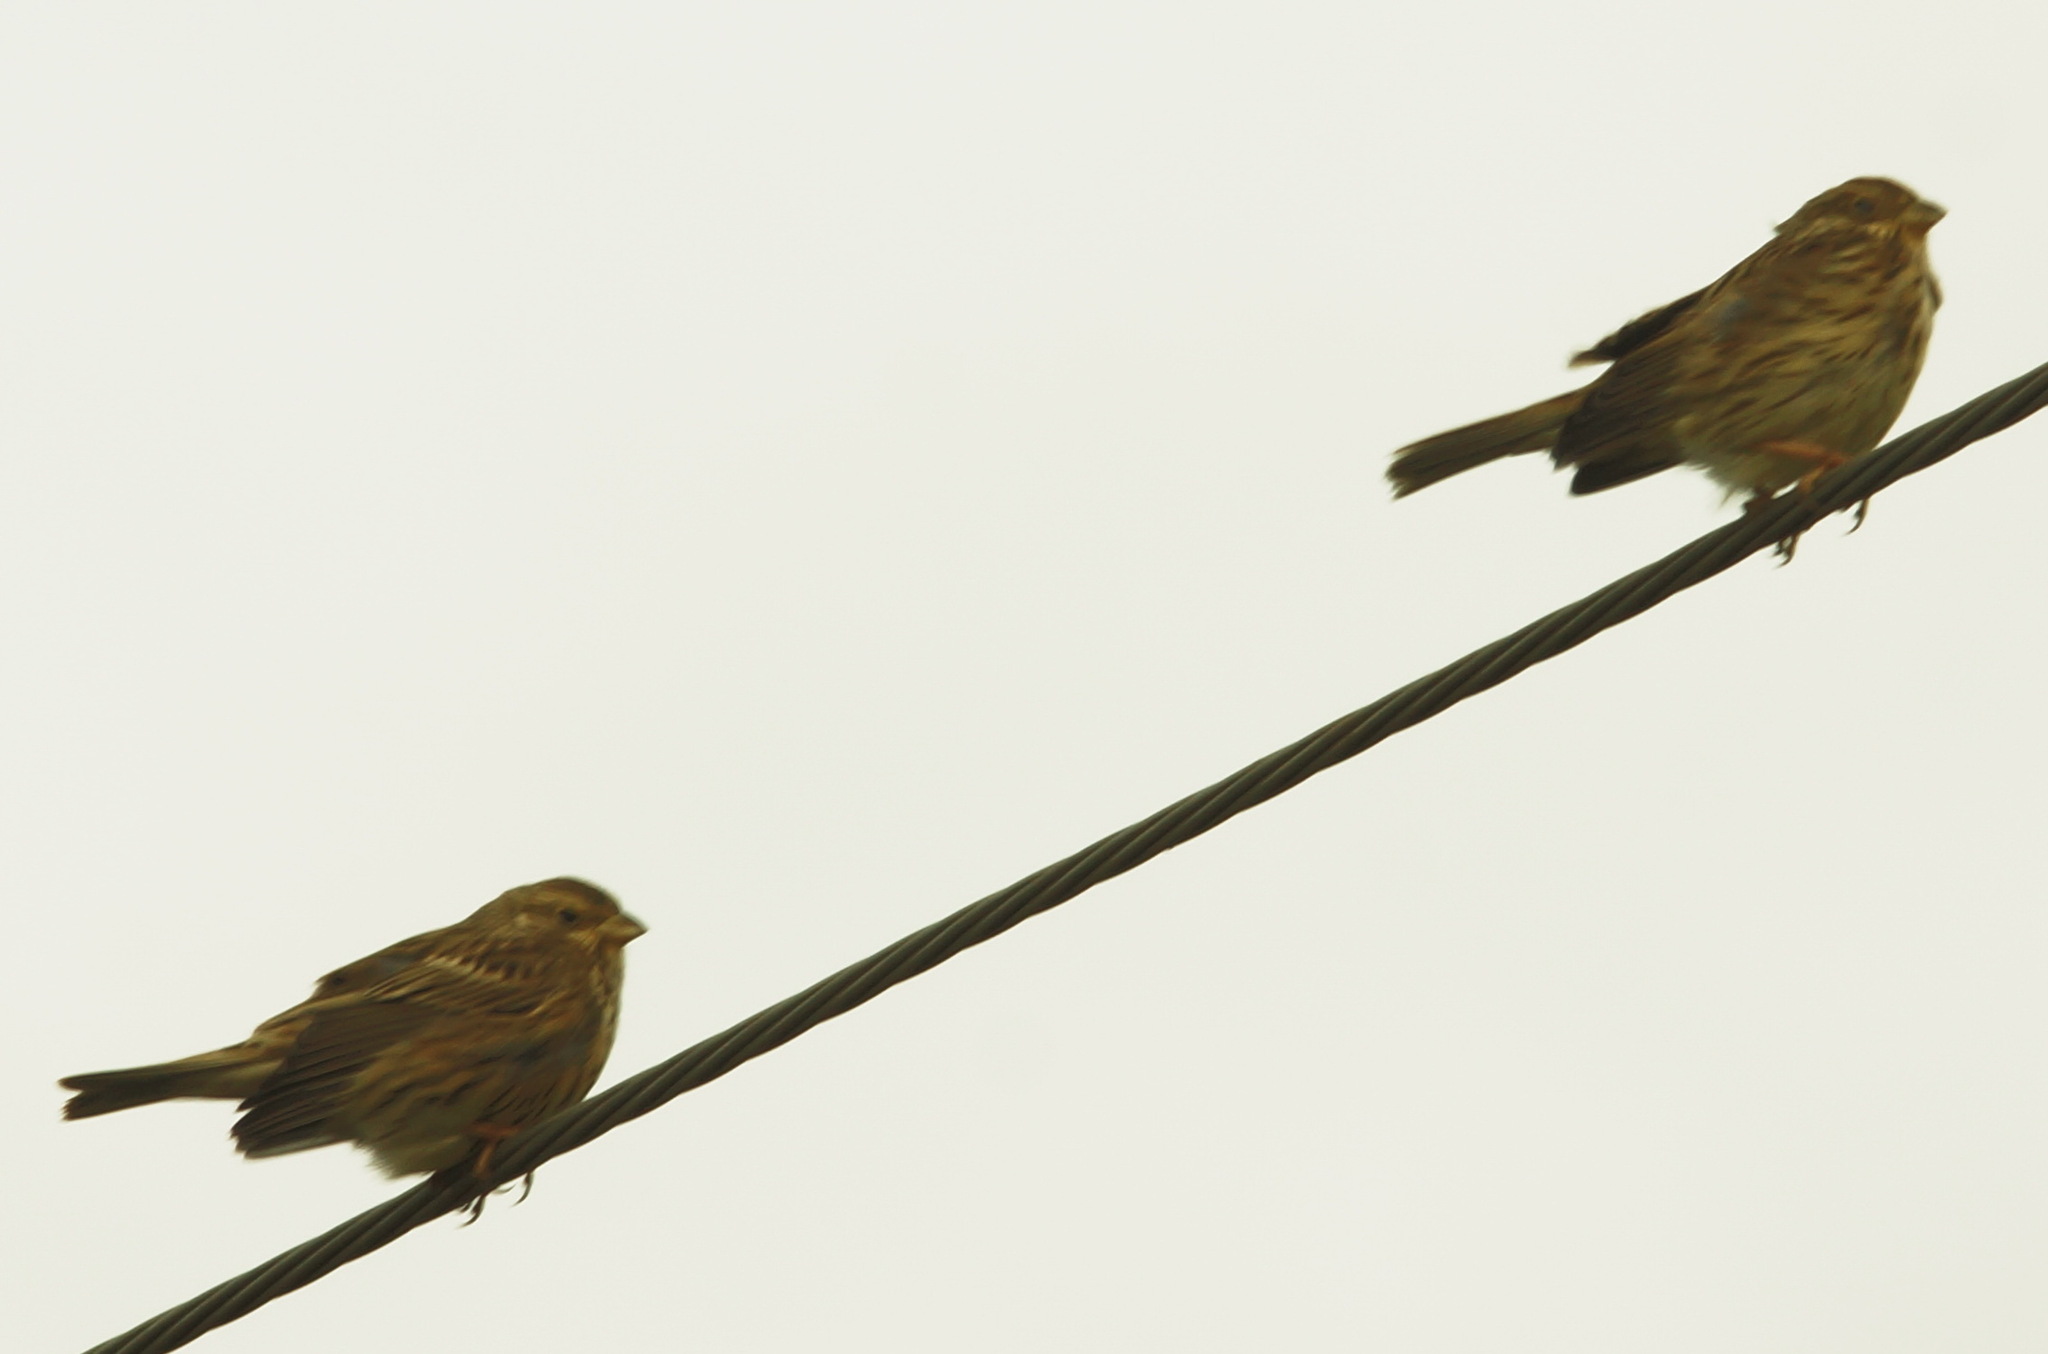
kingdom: Animalia
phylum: Chordata
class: Aves
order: Passeriformes
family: Emberizidae
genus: Emberiza
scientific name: Emberiza calandra
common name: Corn bunting
